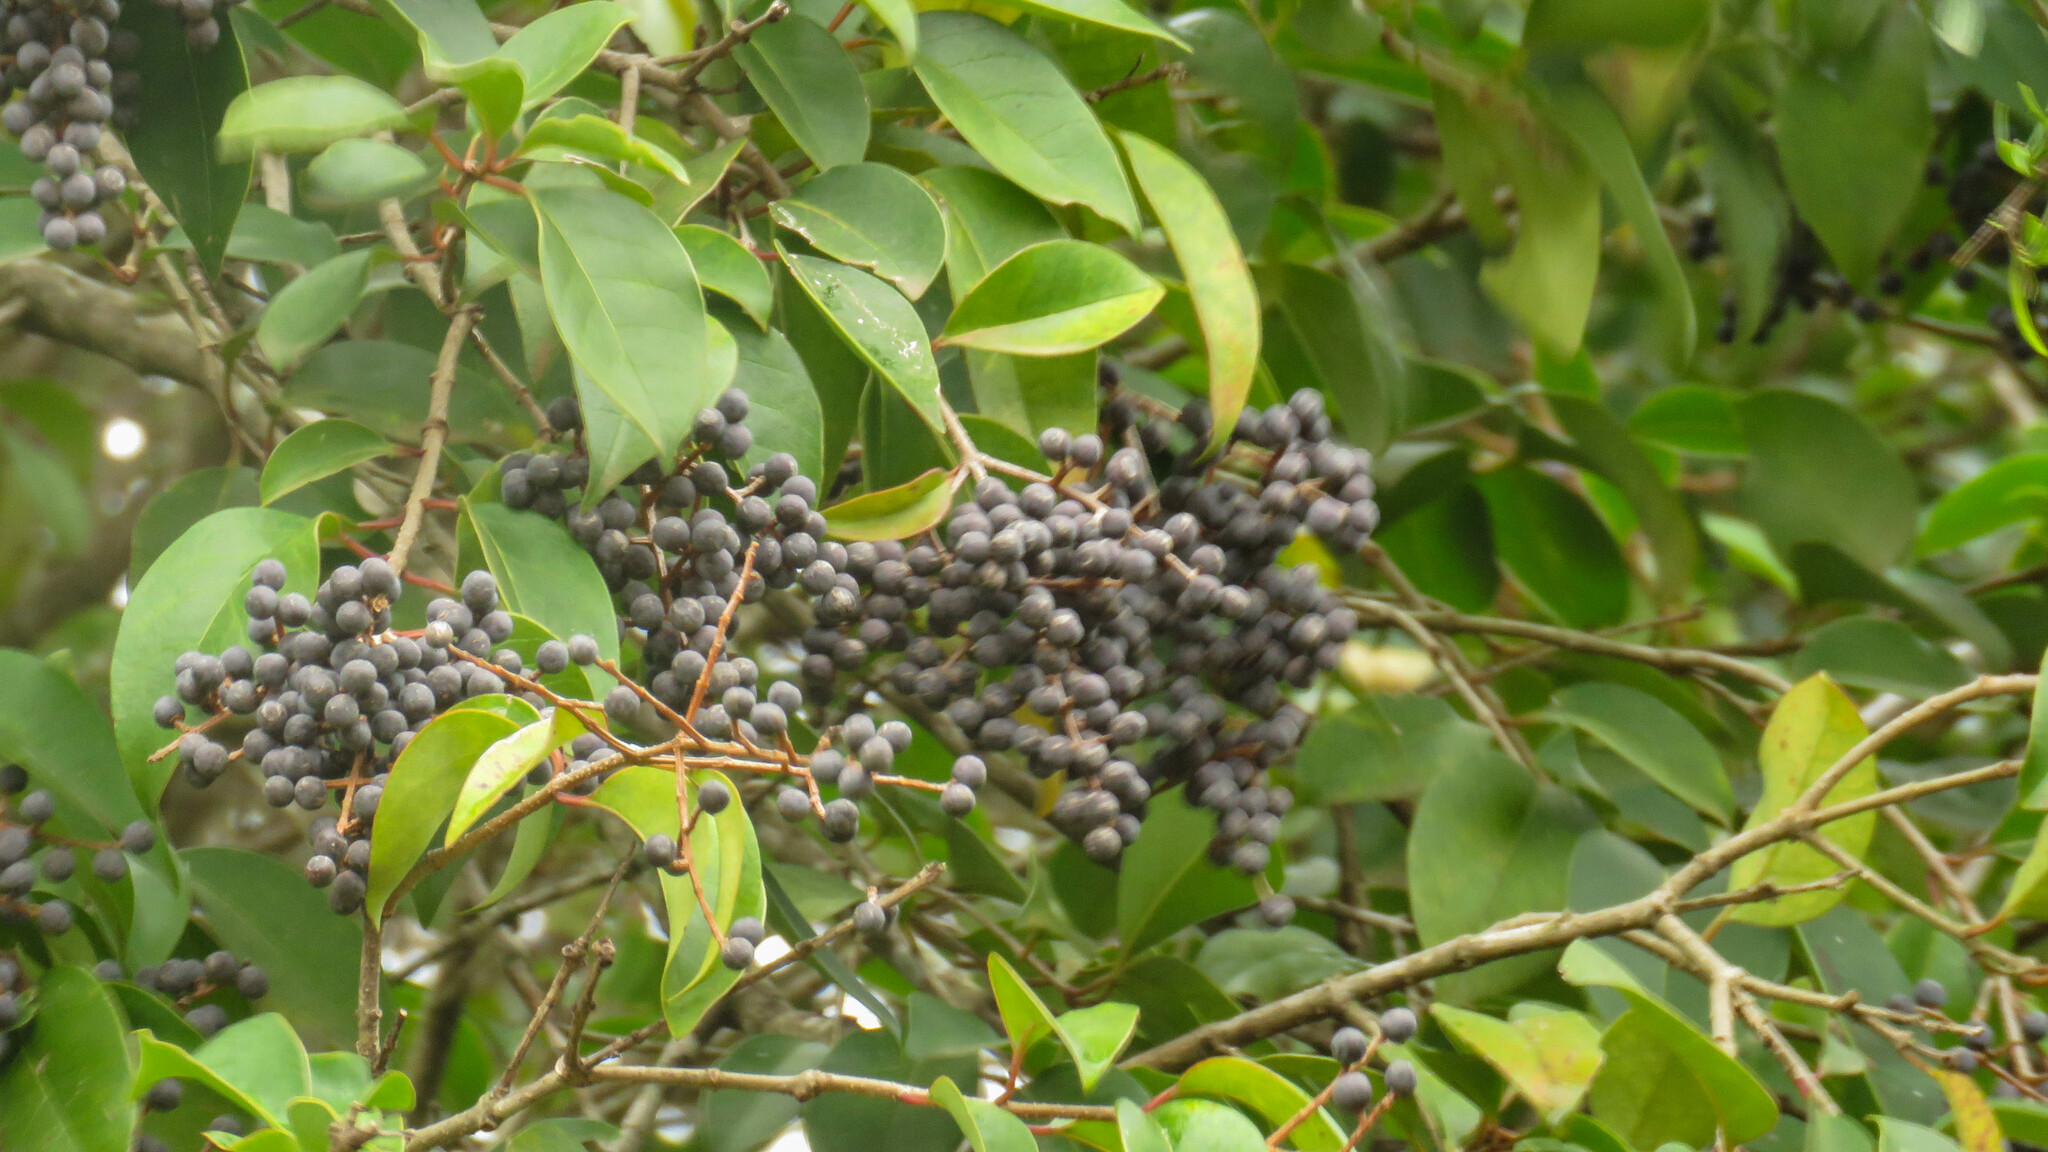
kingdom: Plantae
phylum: Tracheophyta
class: Magnoliopsida
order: Lamiales
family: Oleaceae
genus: Ligustrum
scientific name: Ligustrum lucidum
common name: Glossy privet
